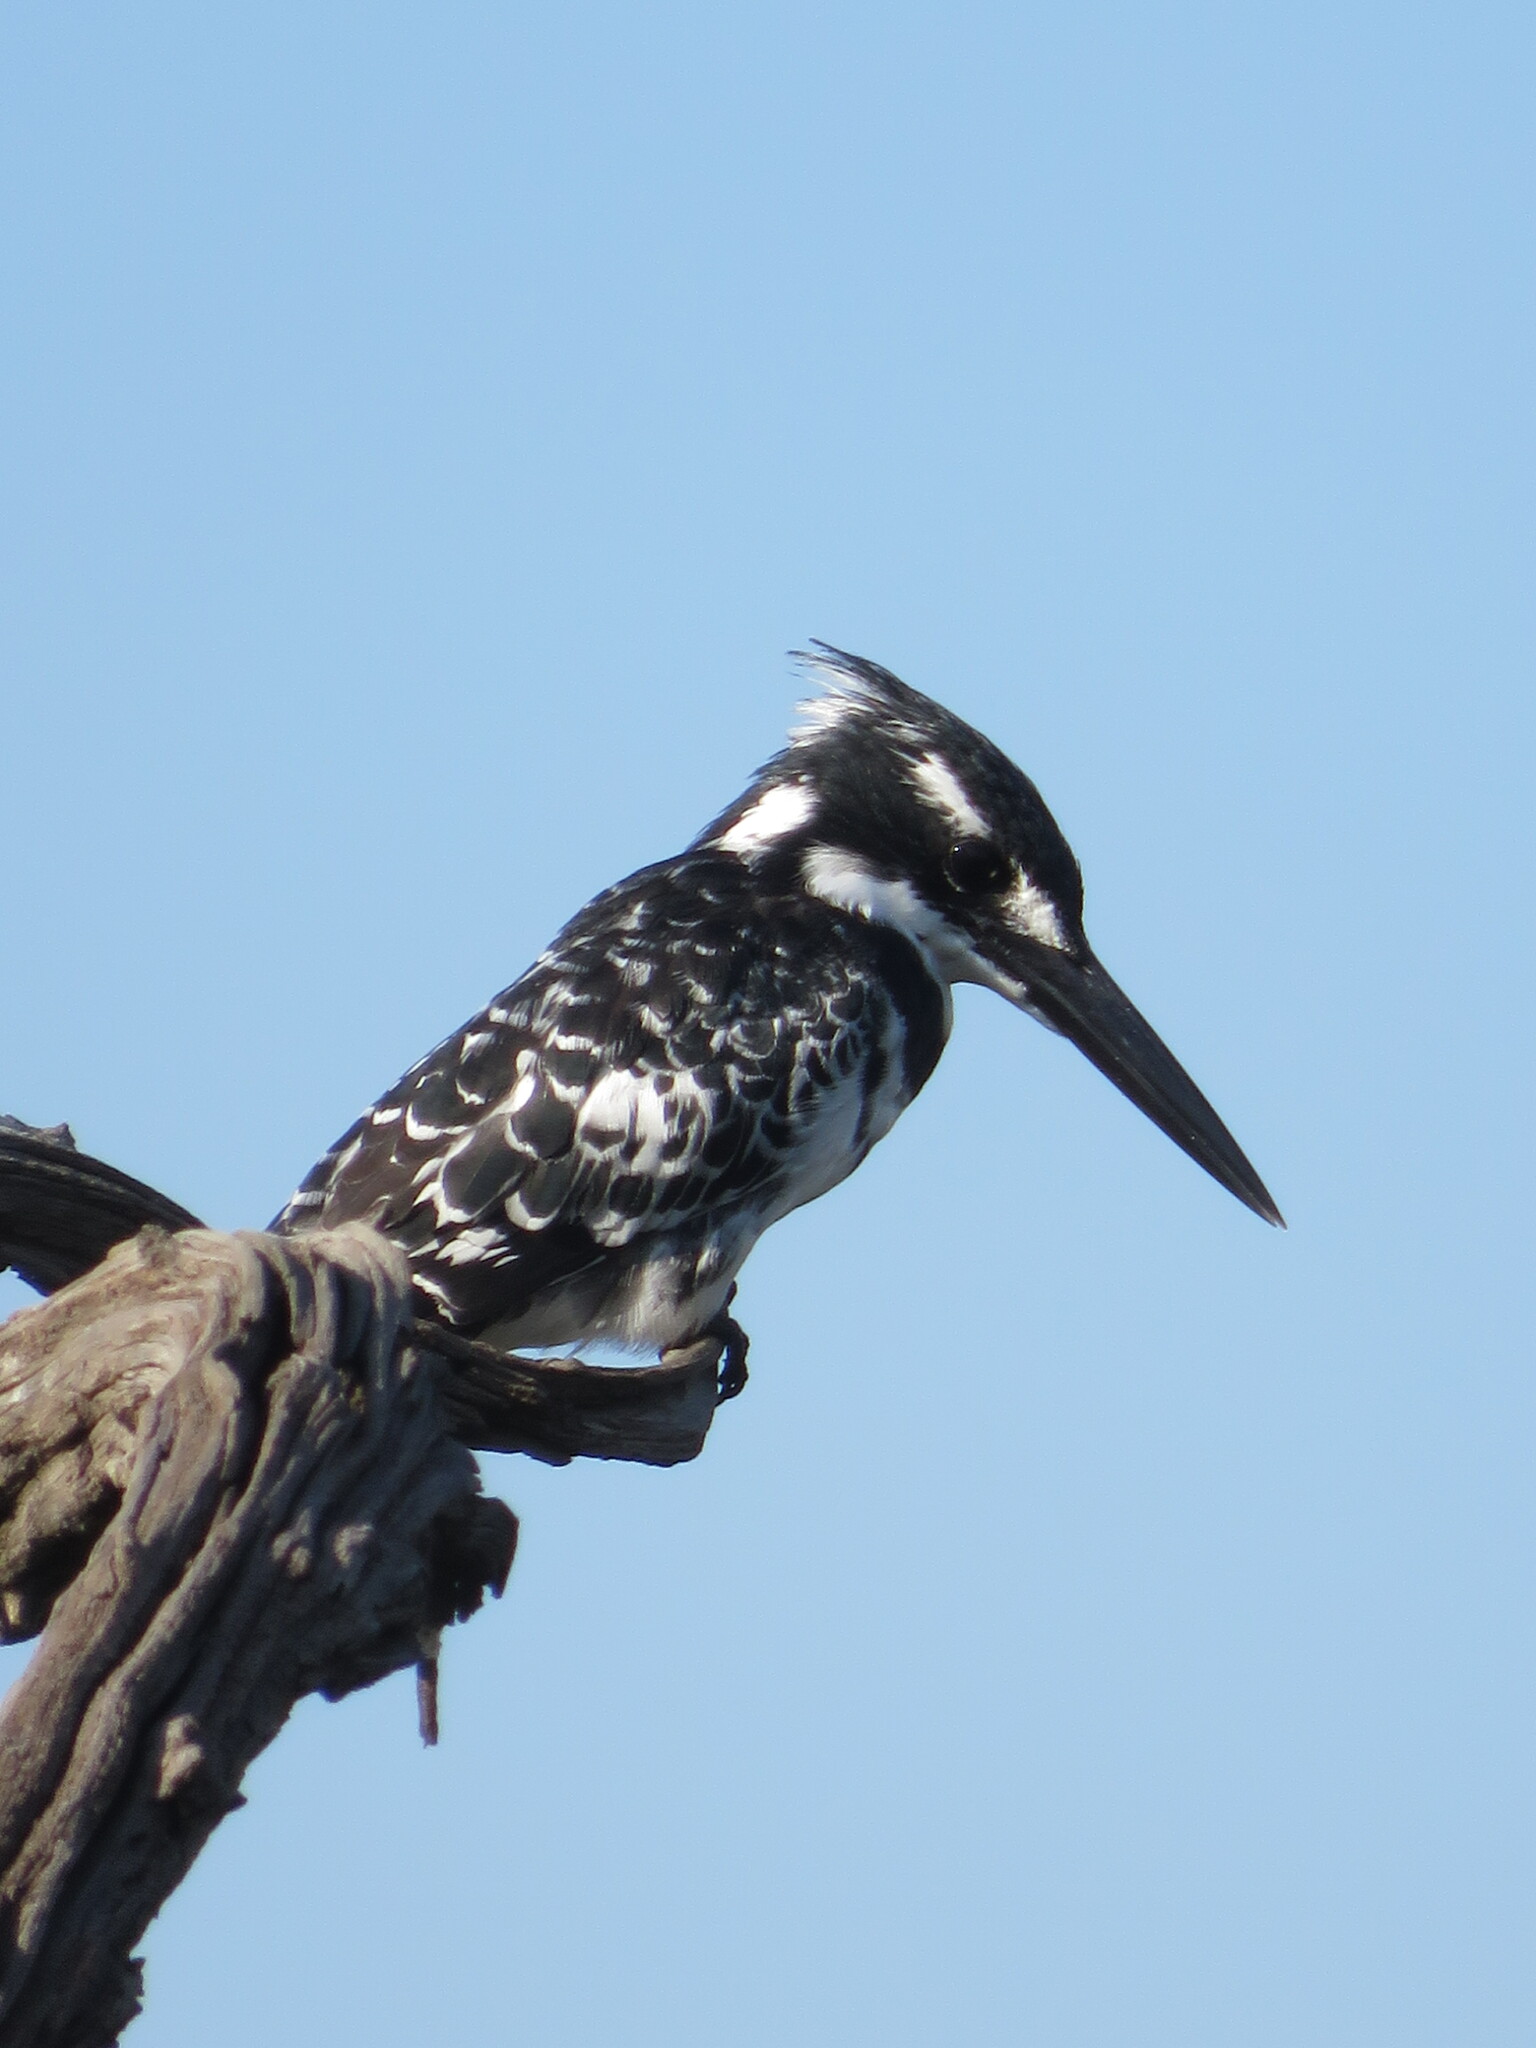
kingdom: Animalia
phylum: Chordata
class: Aves
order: Coraciiformes
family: Alcedinidae
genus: Ceryle
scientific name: Ceryle rudis
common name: Pied kingfisher
